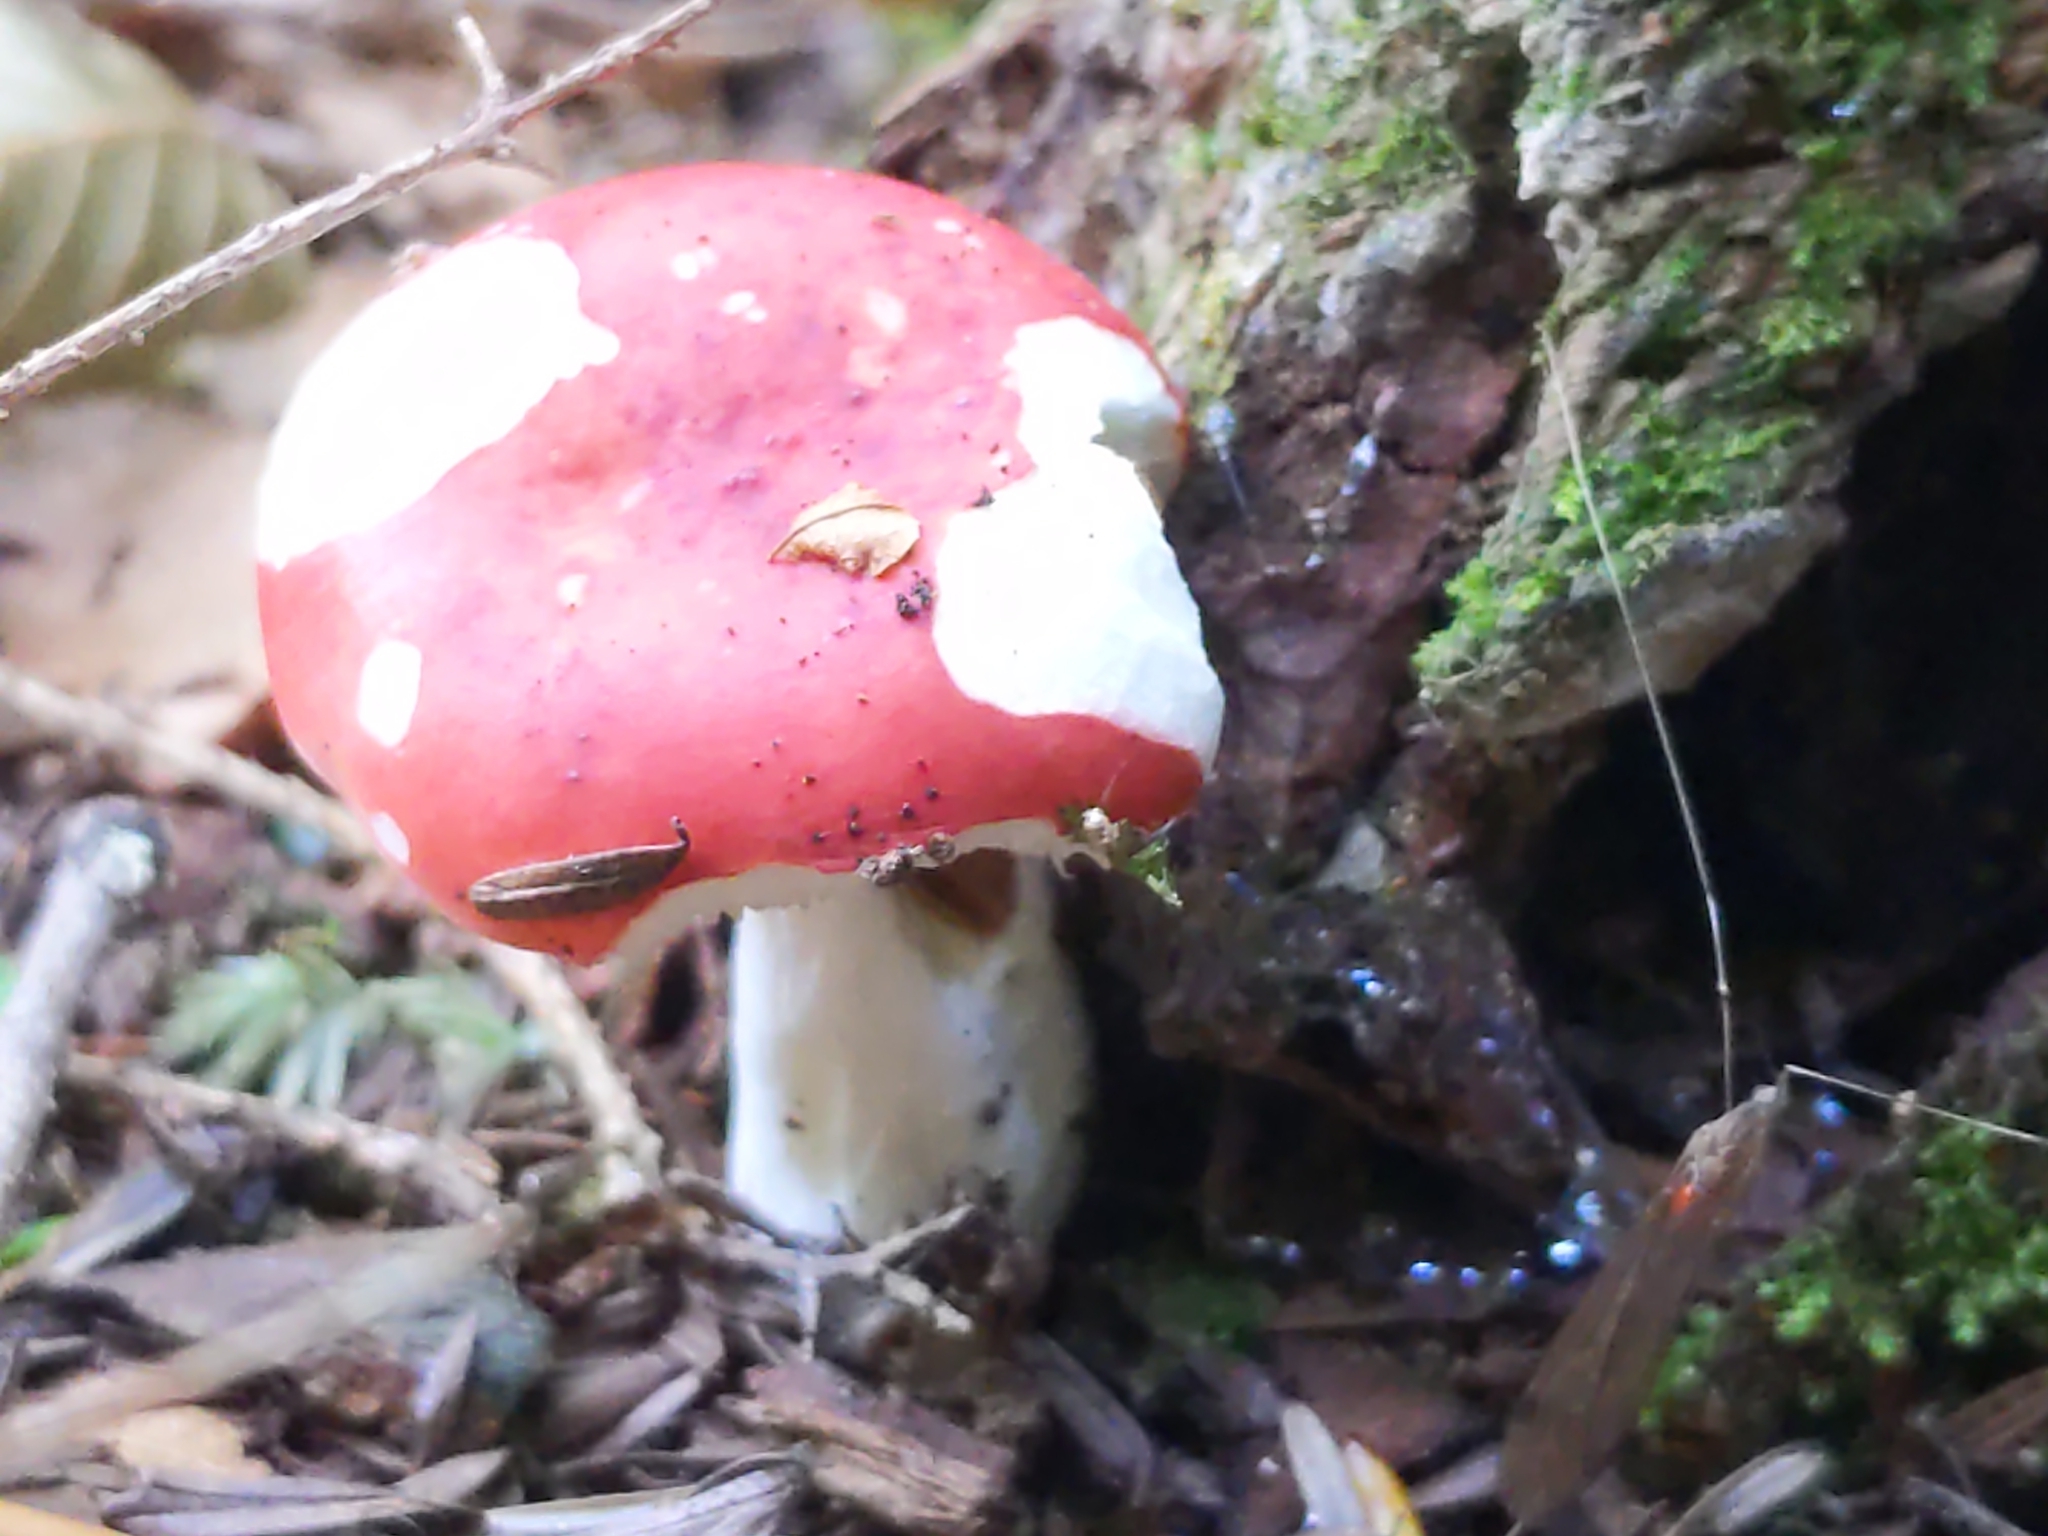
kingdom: Fungi
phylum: Basidiomycota
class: Agaricomycetes
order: Russulales
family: Russulaceae
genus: Russula
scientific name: Russula
